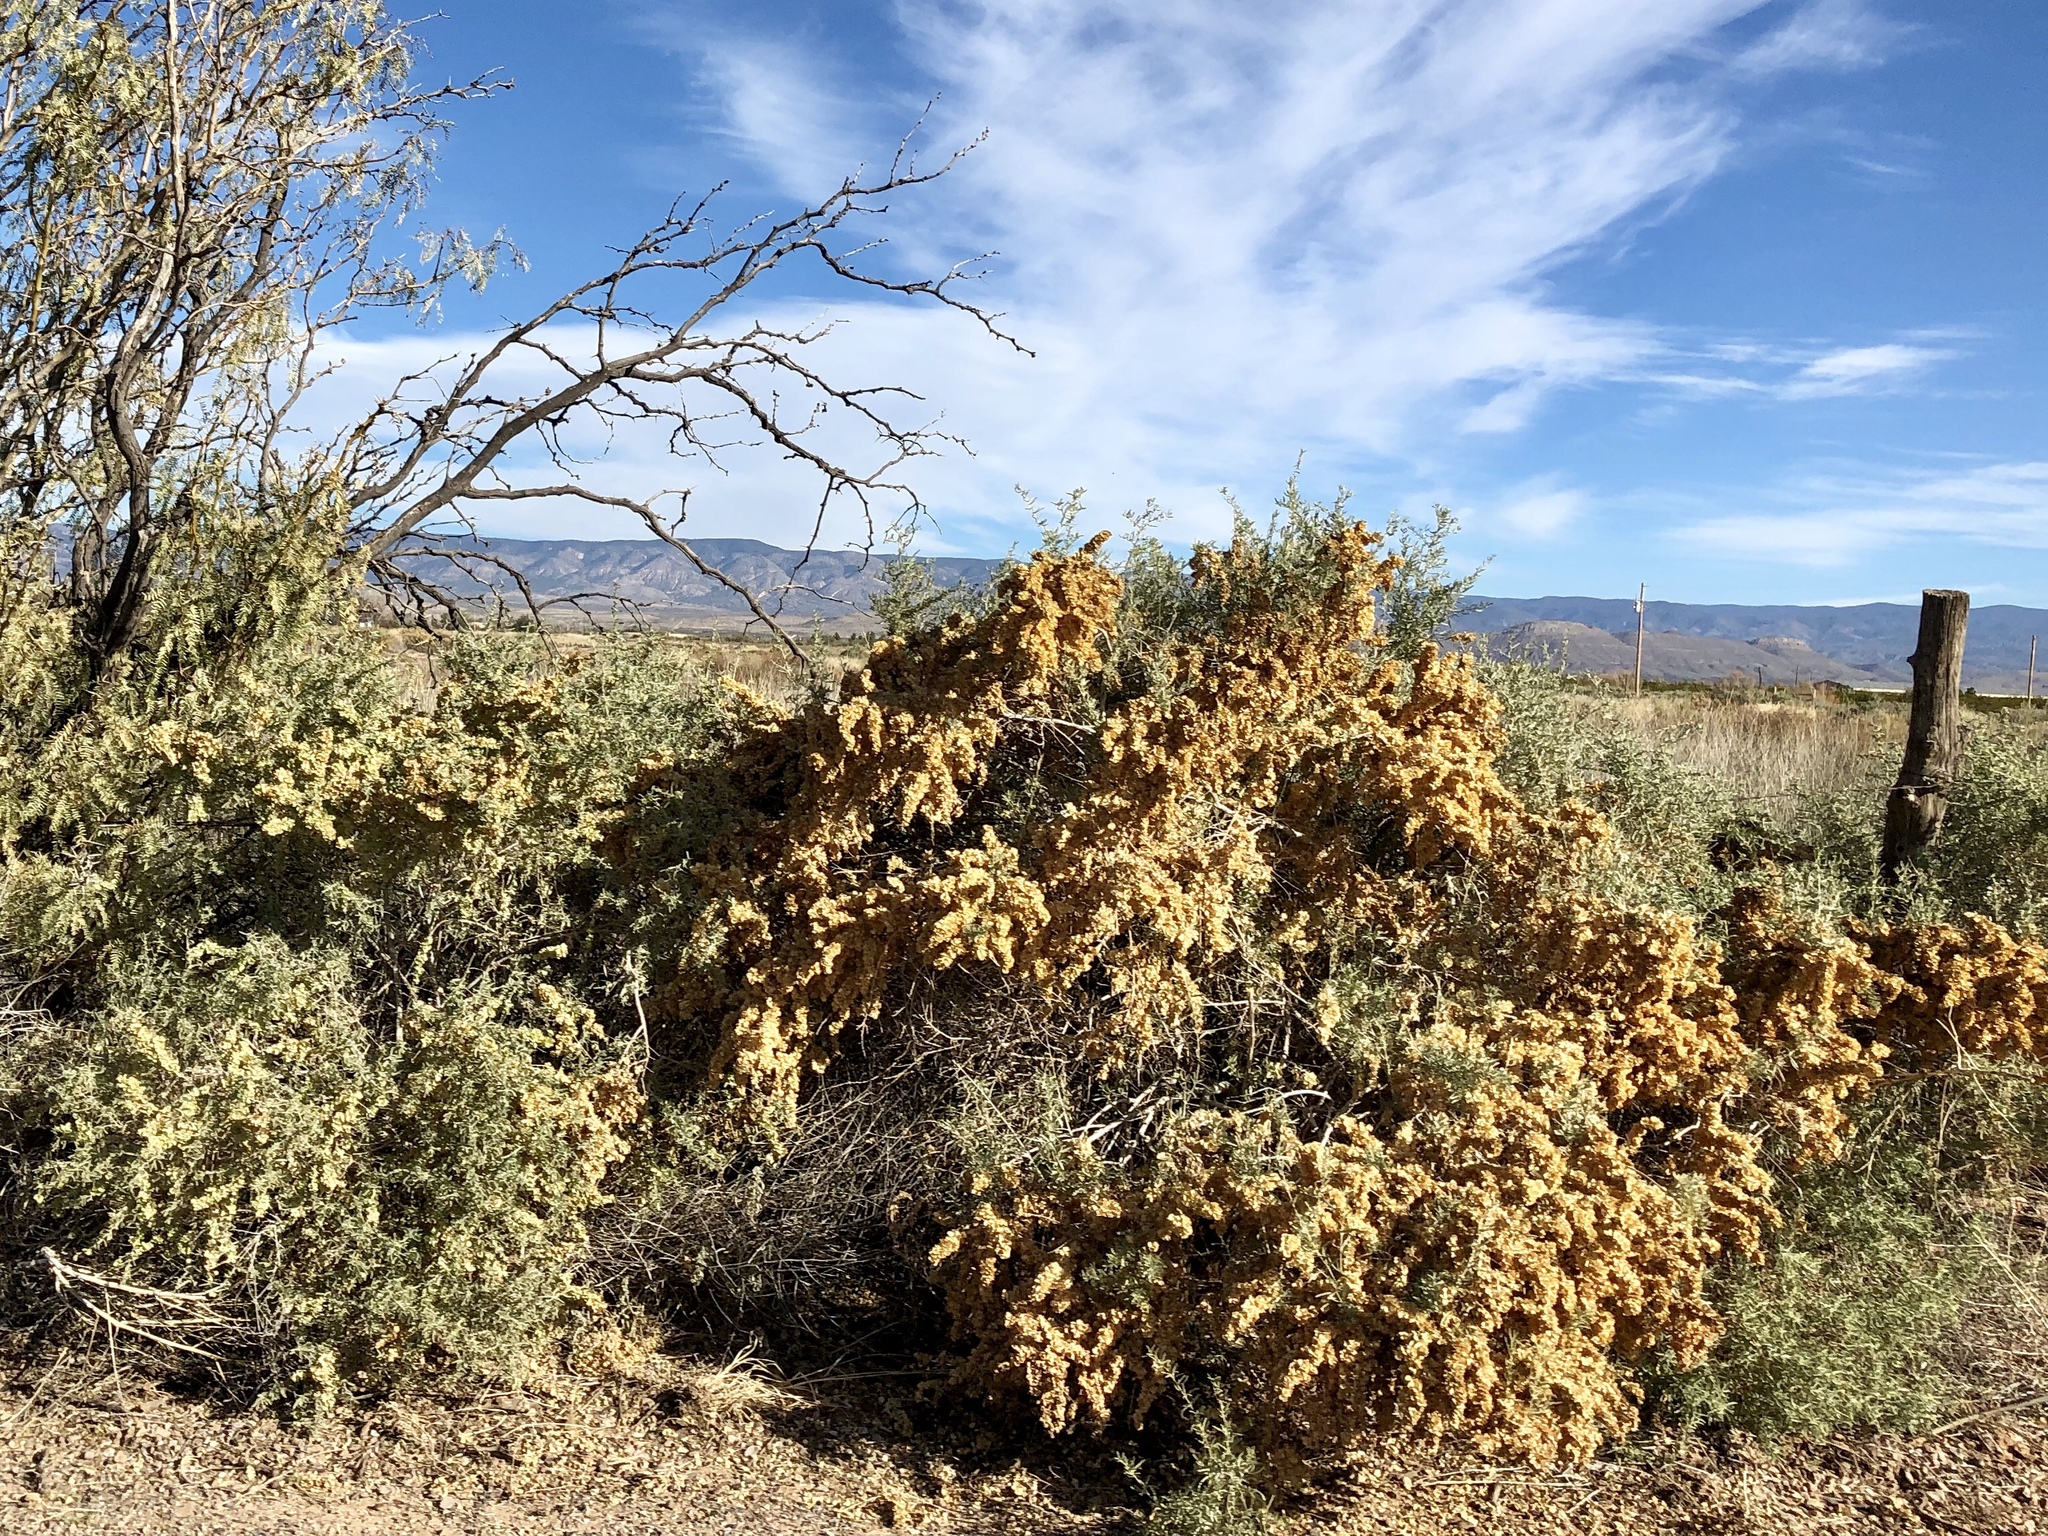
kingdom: Plantae
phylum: Tracheophyta
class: Magnoliopsida
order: Caryophyllales
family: Amaranthaceae
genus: Atriplex
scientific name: Atriplex canescens
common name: Four-wing saltbush
